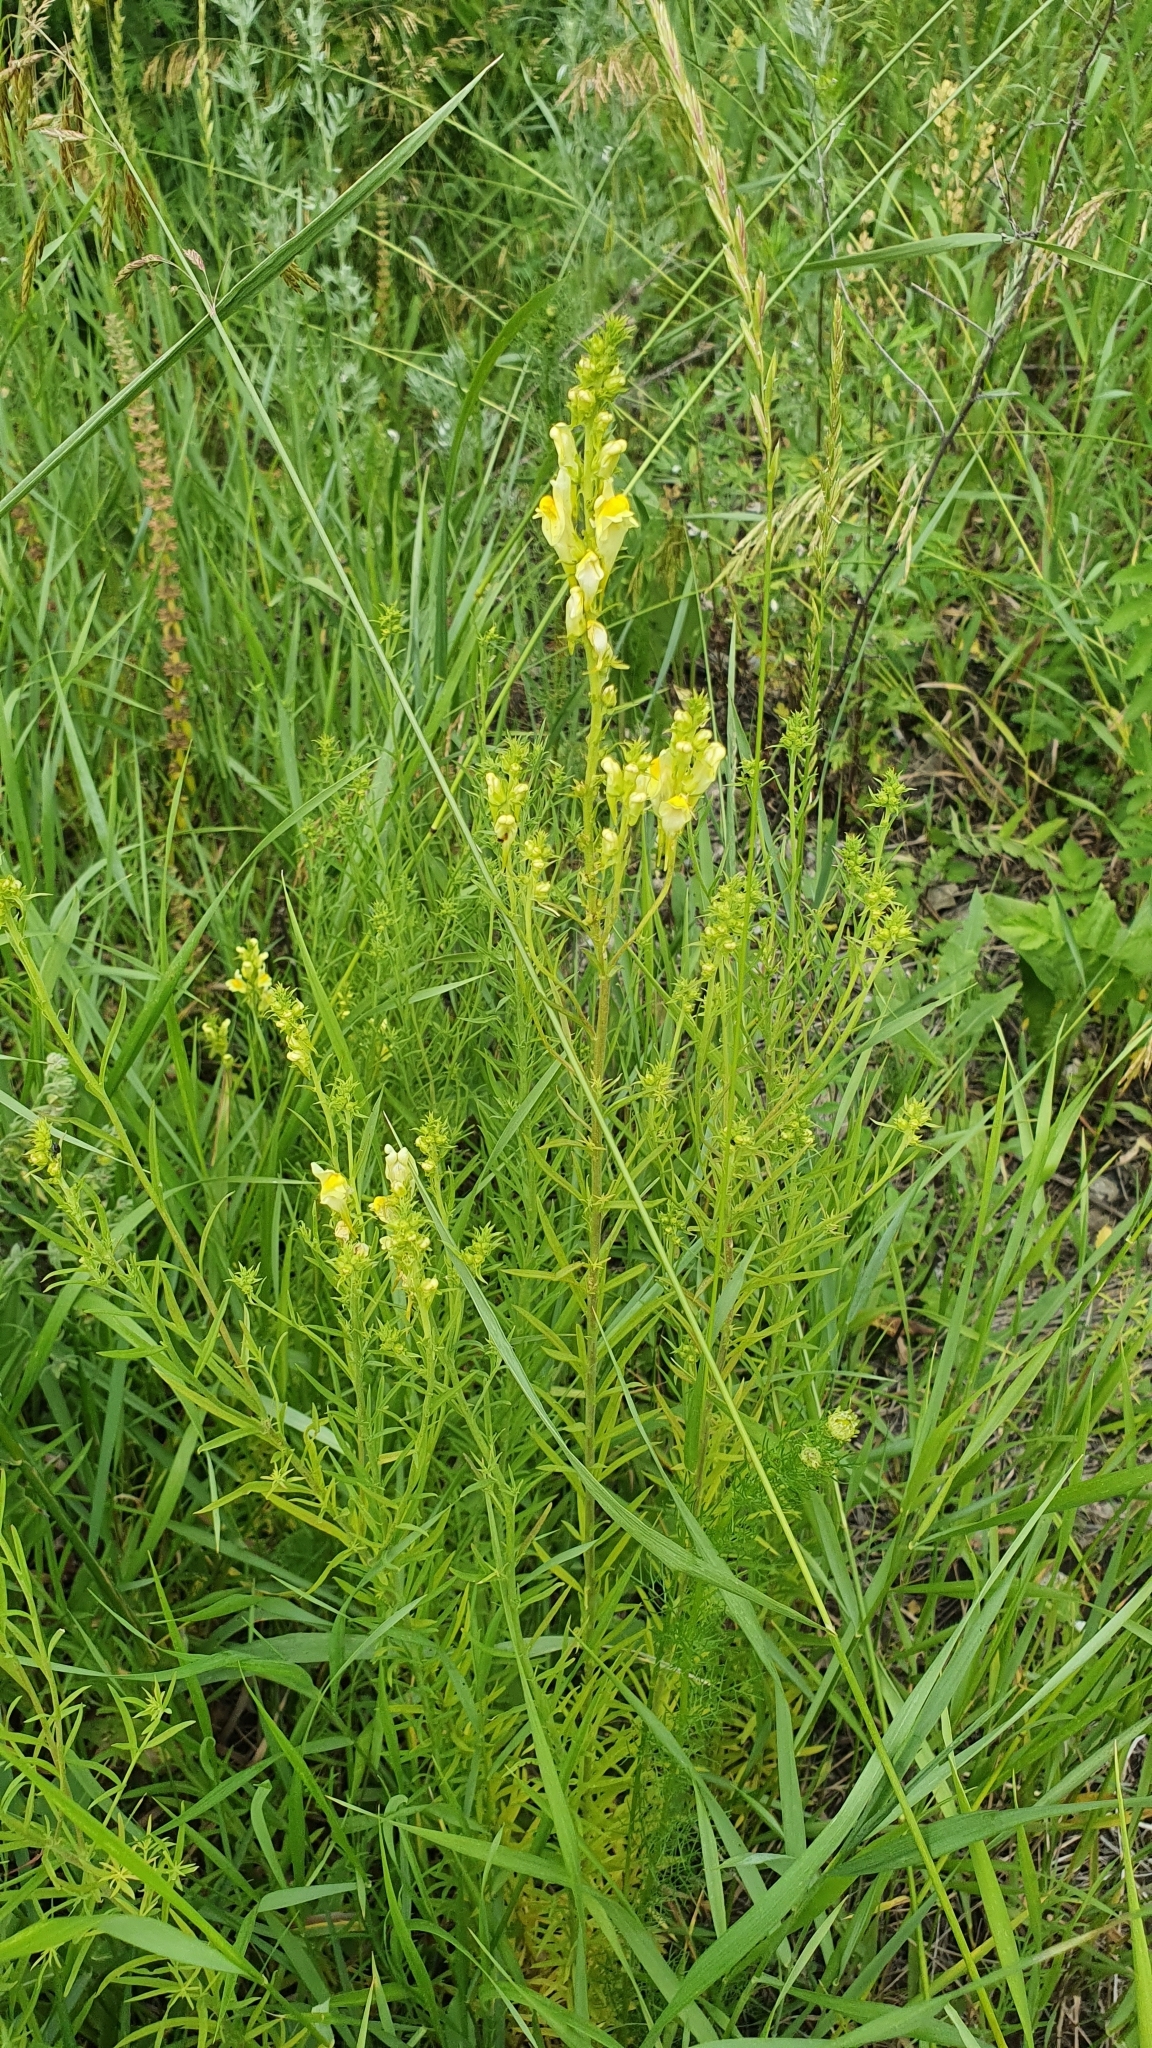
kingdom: Plantae
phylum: Tracheophyta
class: Magnoliopsida
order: Lamiales
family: Plantaginaceae
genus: Linaria
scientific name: Linaria vulgaris
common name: Butter and eggs
